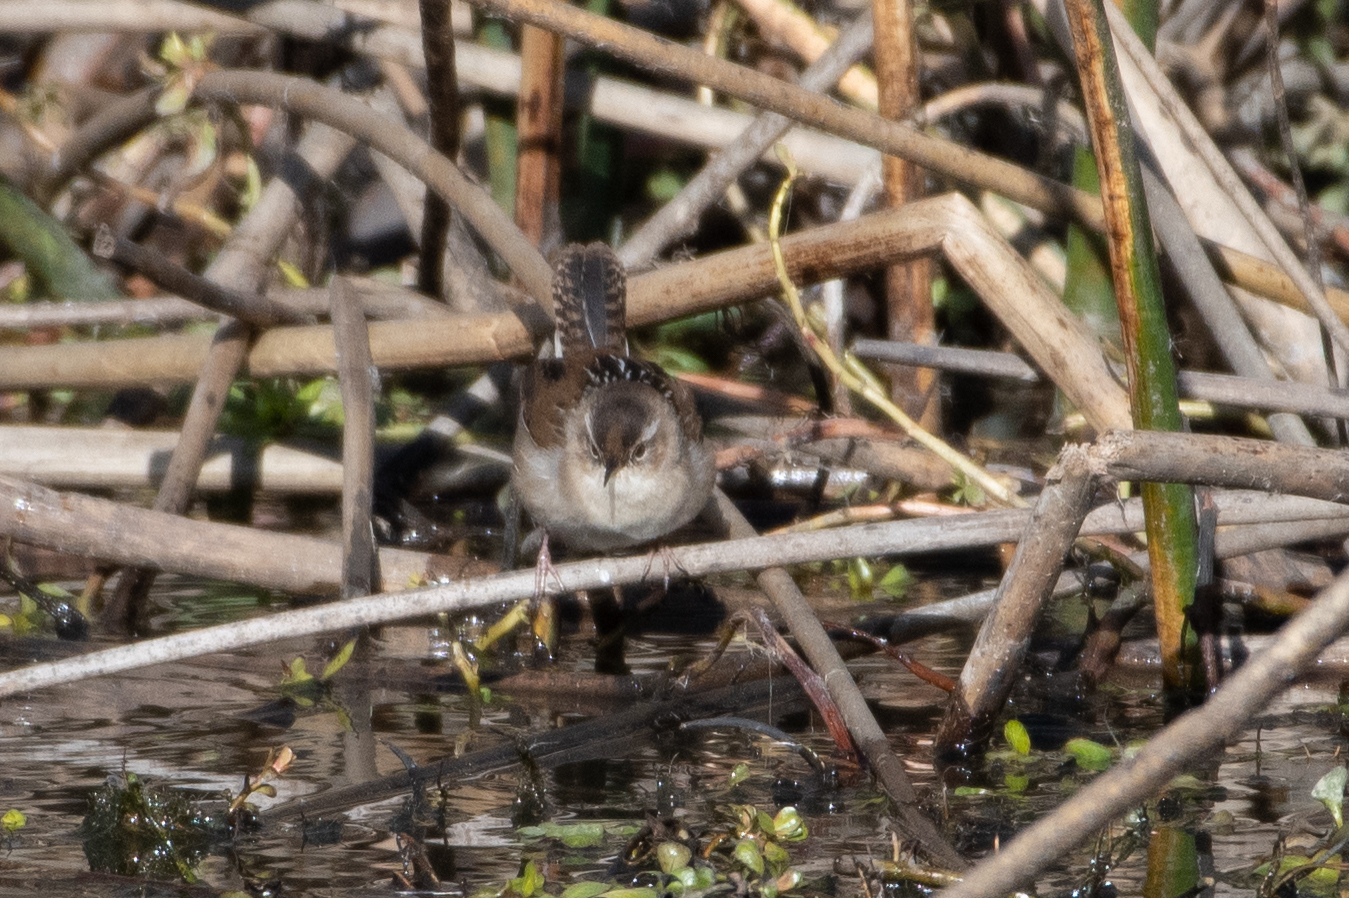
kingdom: Animalia
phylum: Chordata
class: Aves
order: Passeriformes
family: Troglodytidae
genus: Cistothorus
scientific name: Cistothorus palustris
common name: Marsh wren
